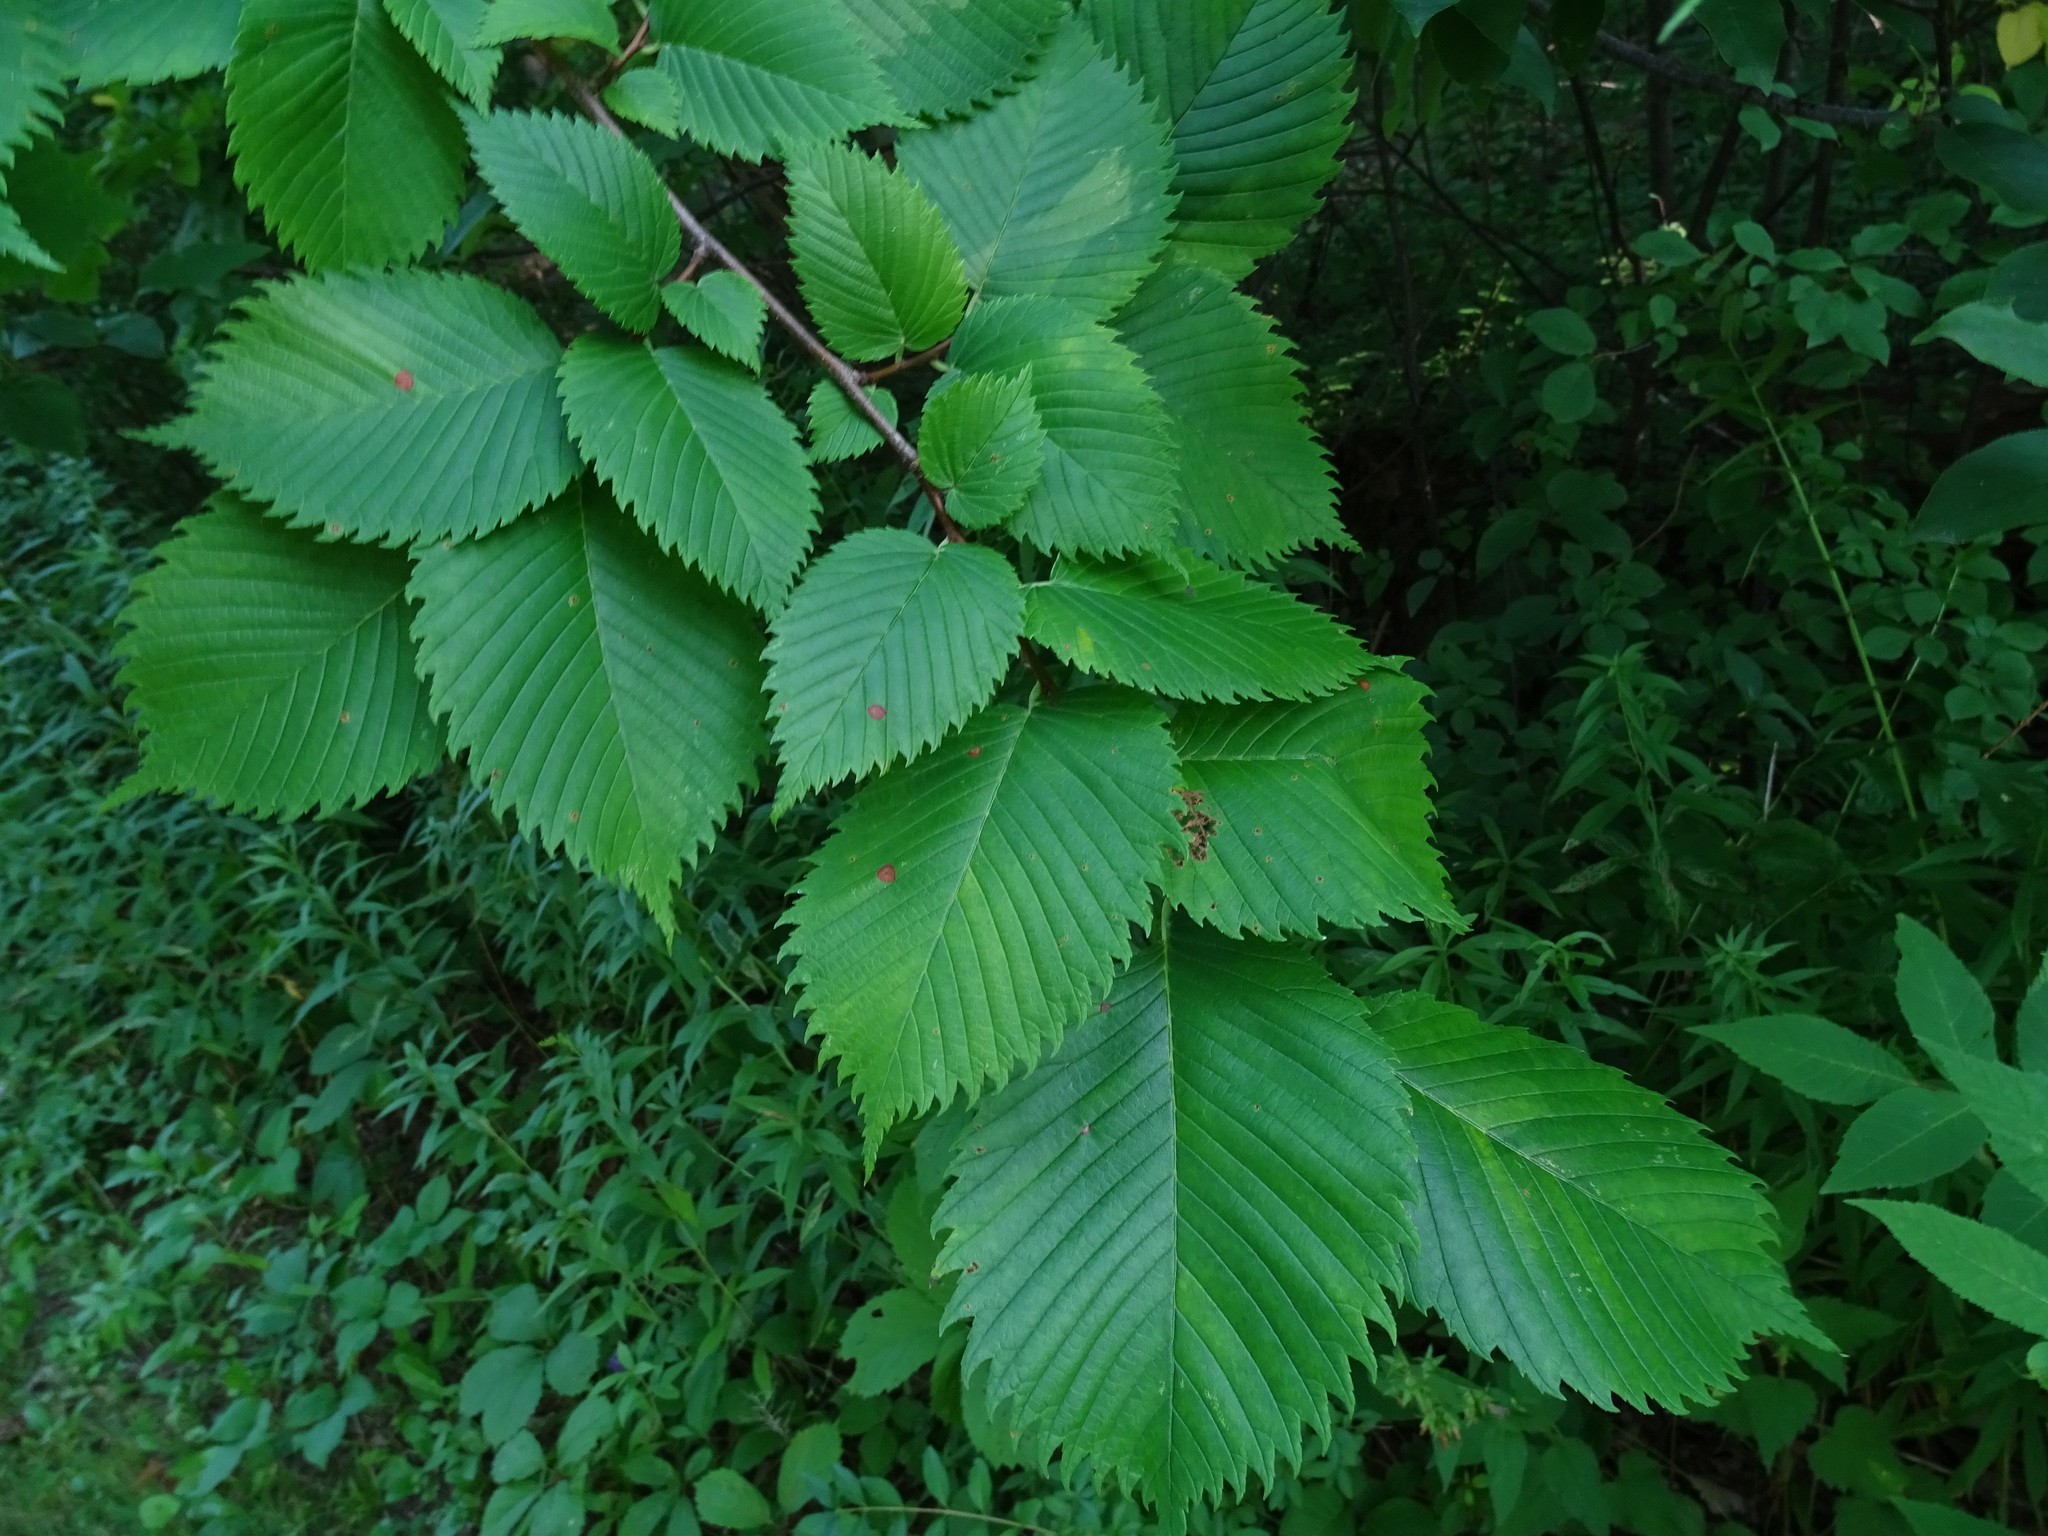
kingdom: Plantae
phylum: Tracheophyta
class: Magnoliopsida
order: Rosales
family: Ulmaceae
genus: Ulmus
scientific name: Ulmus rubra
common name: Slippery elm
